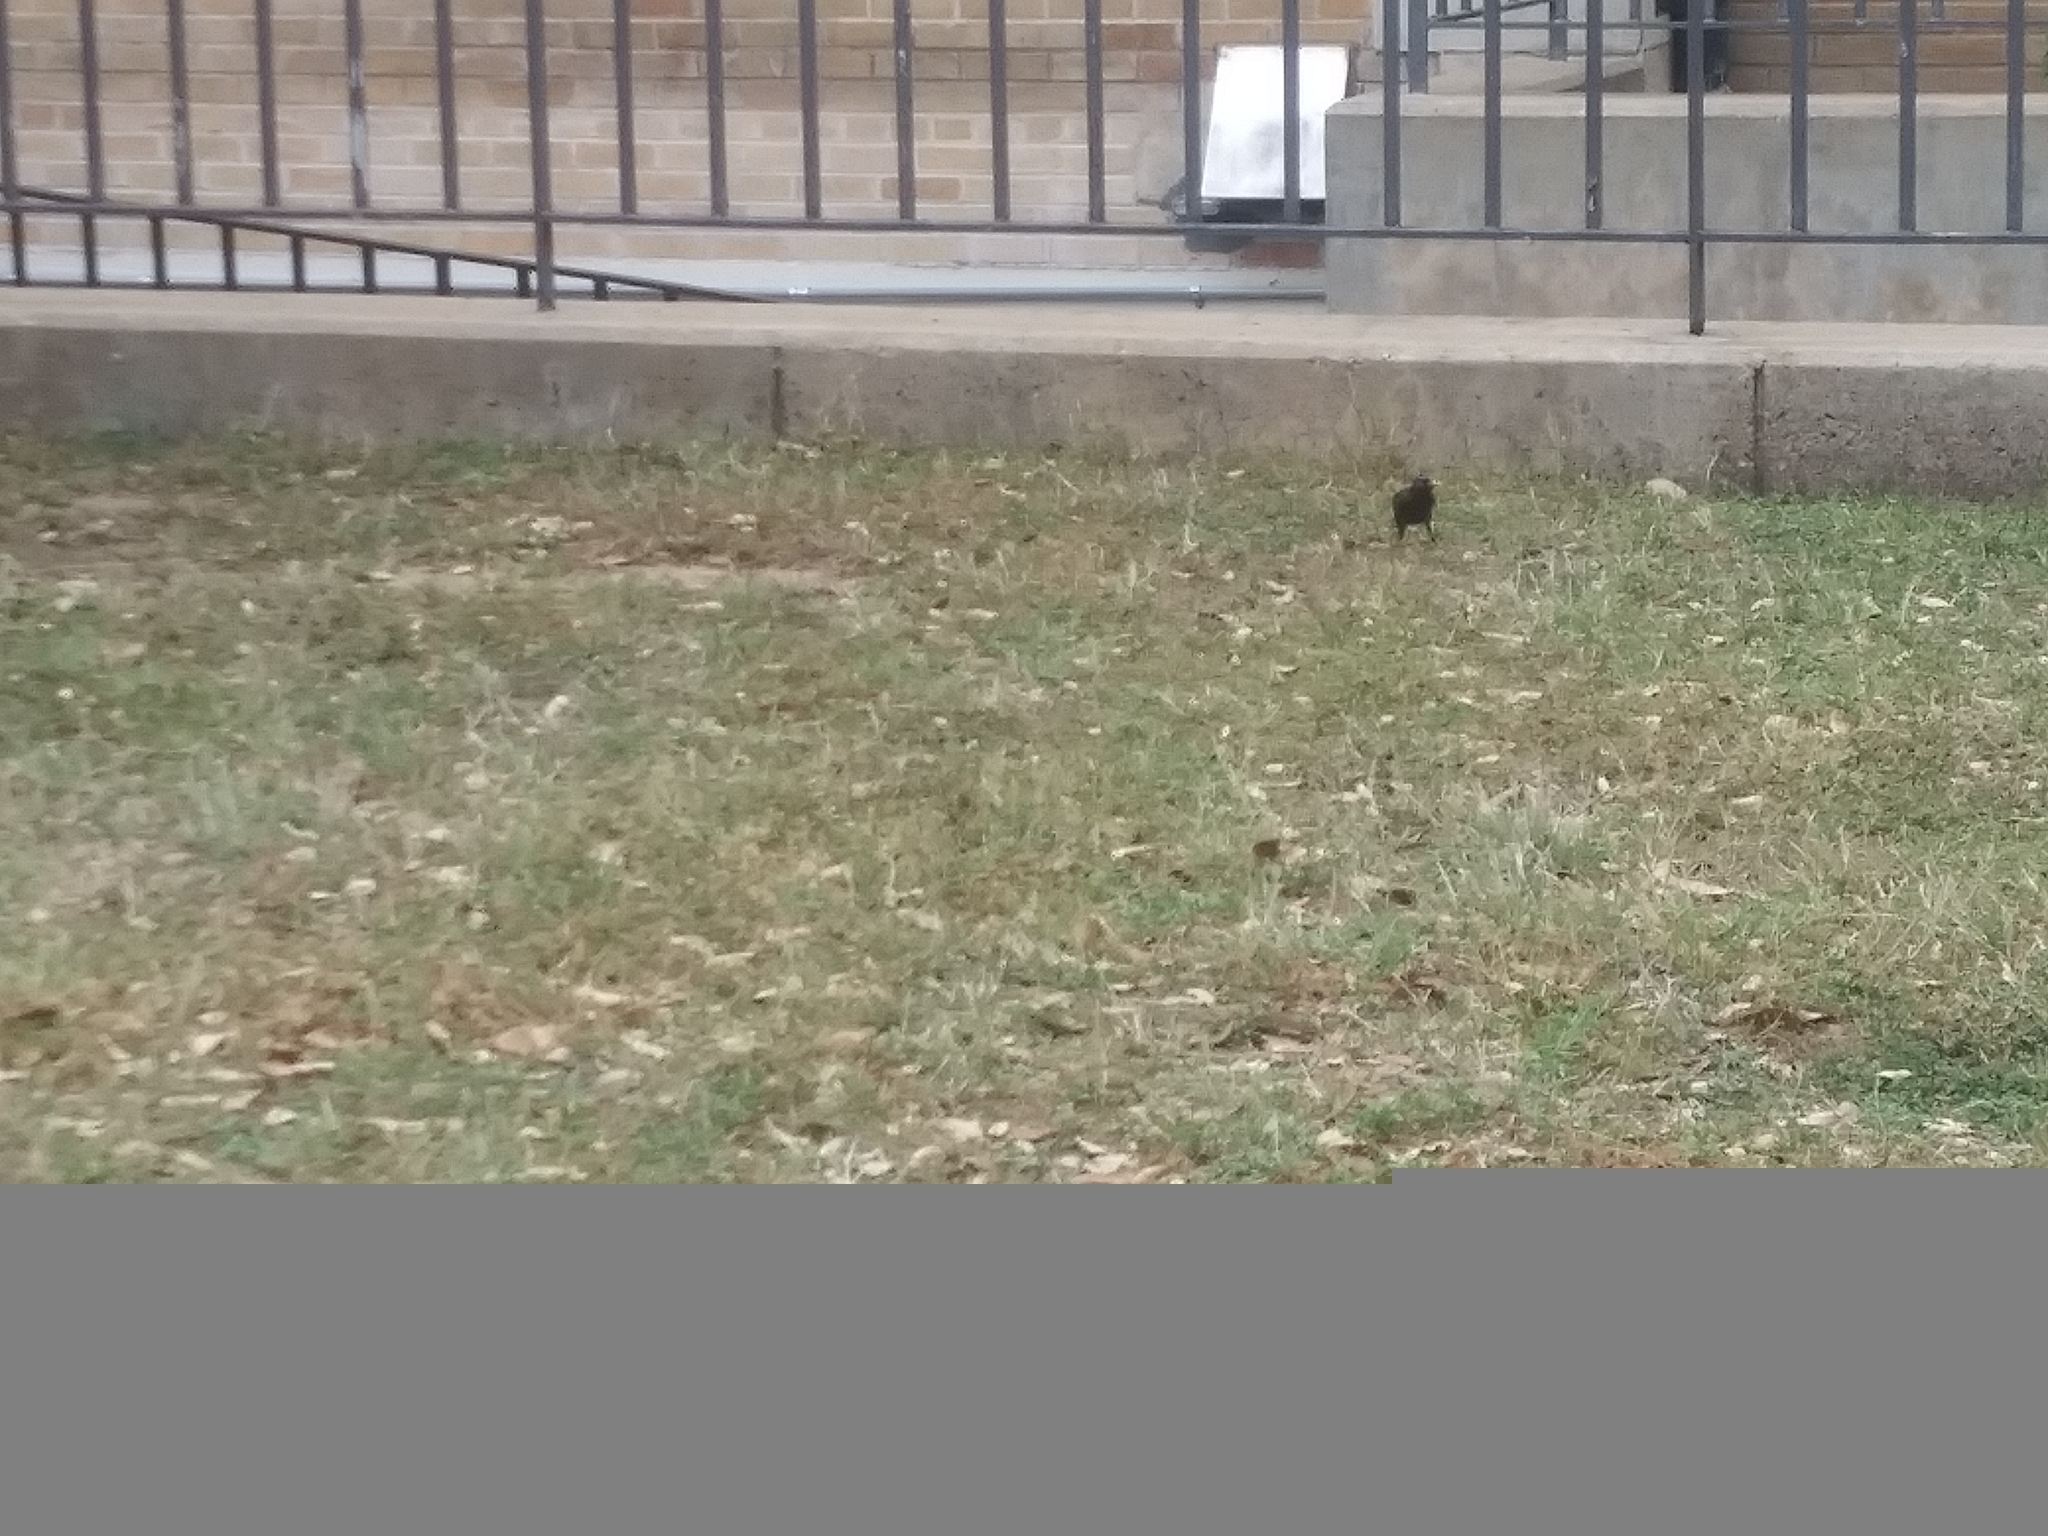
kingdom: Animalia
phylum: Chordata
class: Aves
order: Passeriformes
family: Sturnidae
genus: Sturnus
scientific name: Sturnus vulgaris
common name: Common starling
